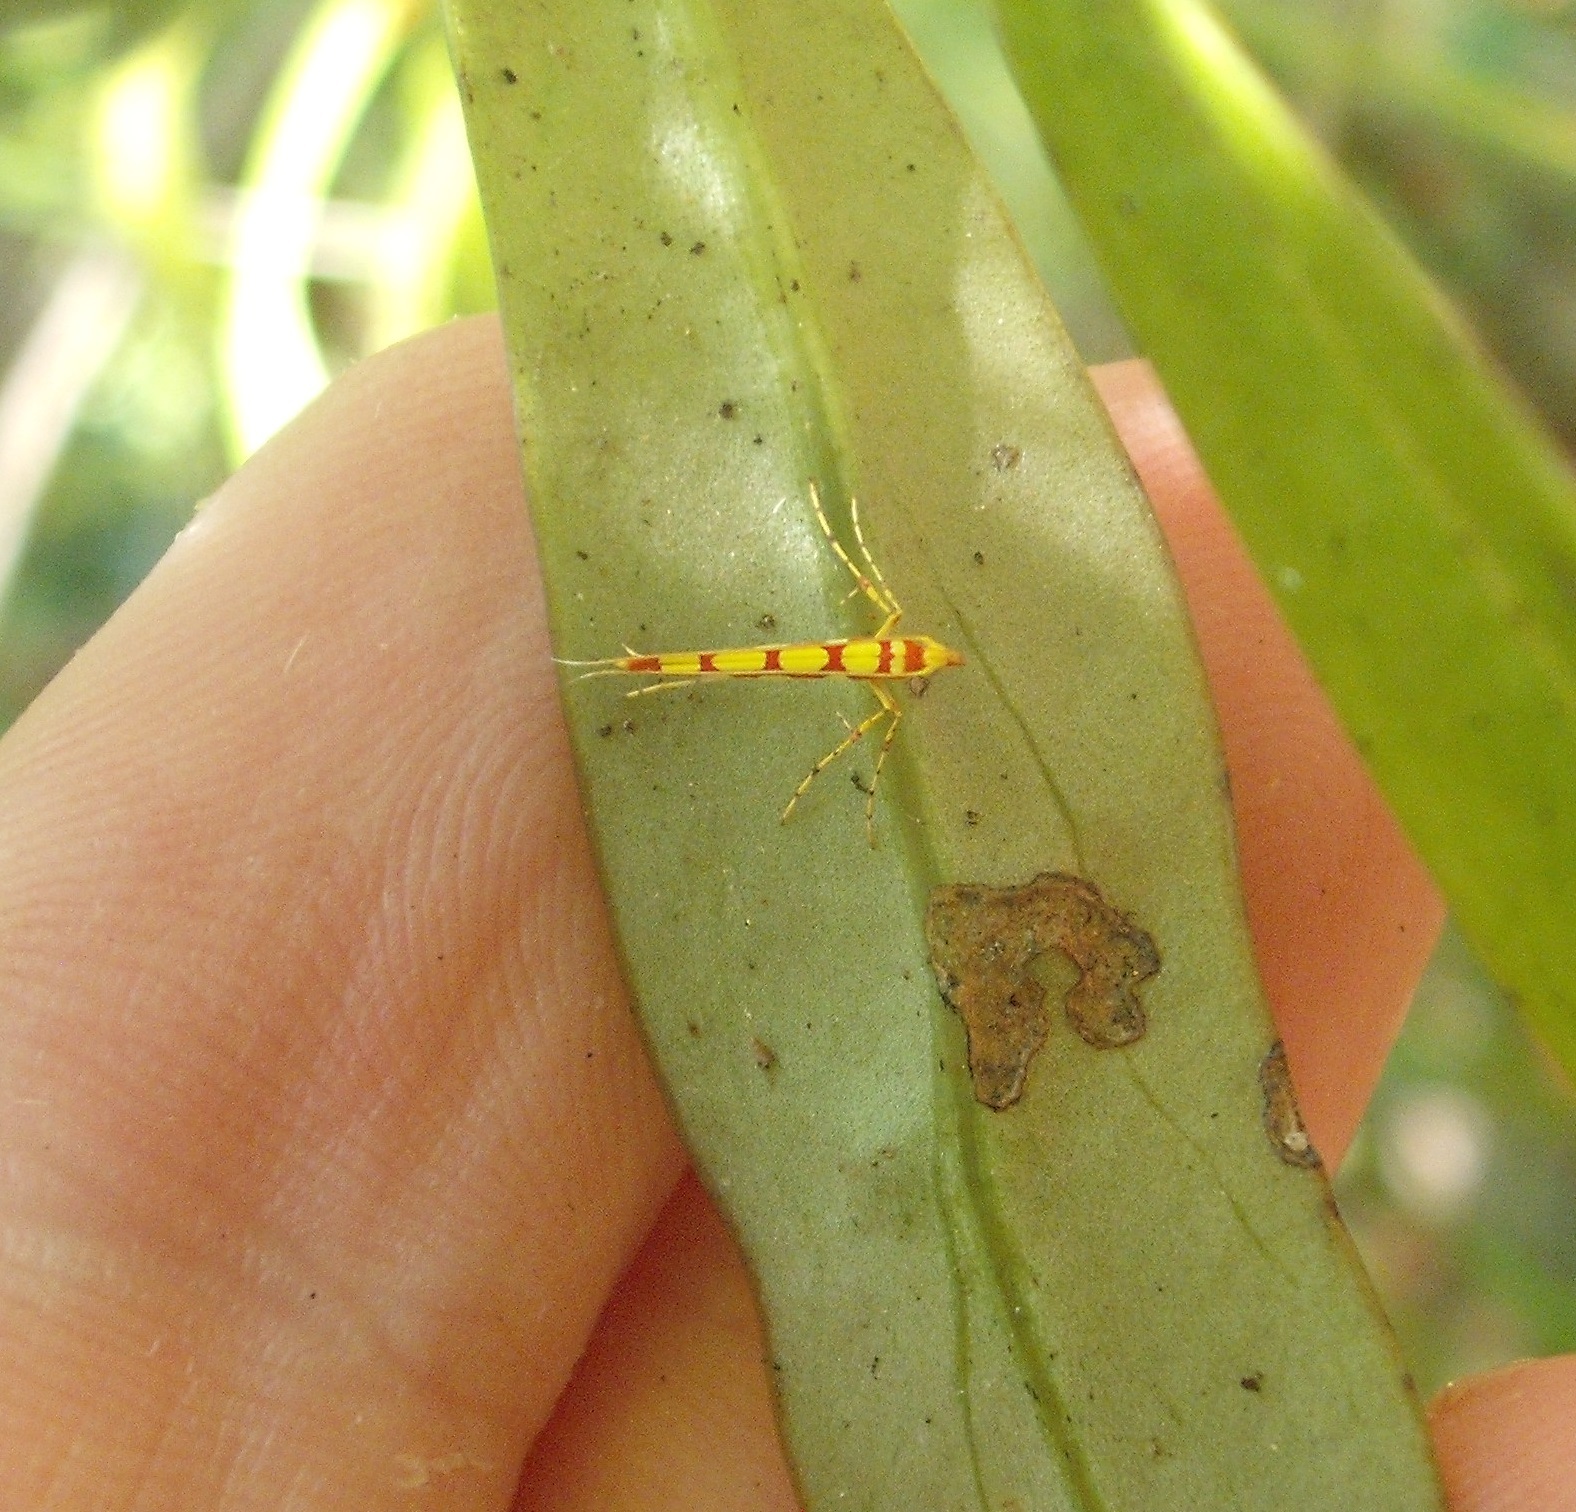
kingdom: Animalia
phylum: Arthropoda
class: Insecta
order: Lepidoptera
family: Gracillariidae
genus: Macarostola
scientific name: Macarostola miniella
